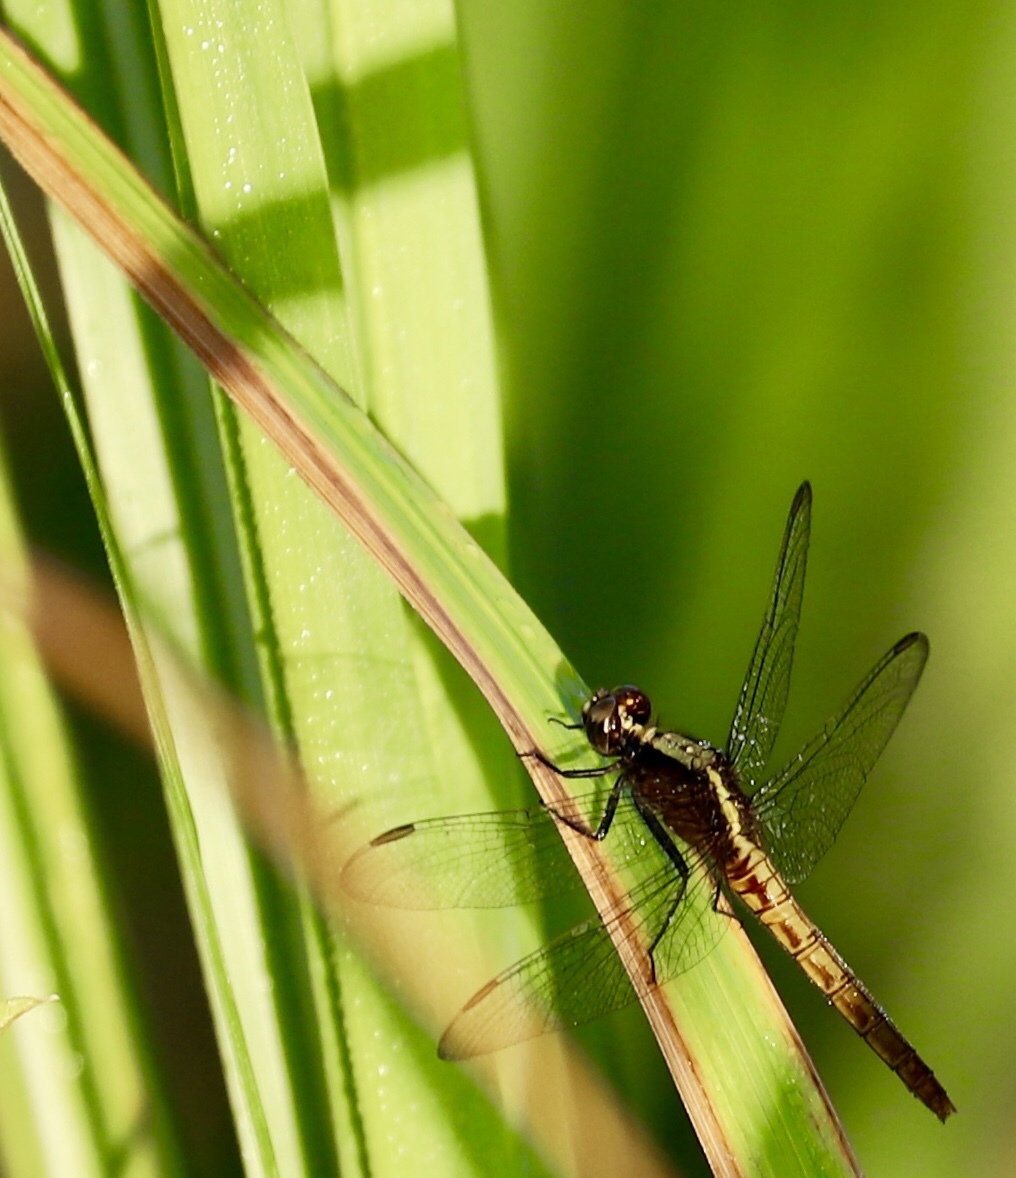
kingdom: Animalia
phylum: Arthropoda
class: Insecta
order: Odonata
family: Libellulidae
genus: Erythemis
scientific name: Erythemis peruviana
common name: Flame-tailed pondhawk
